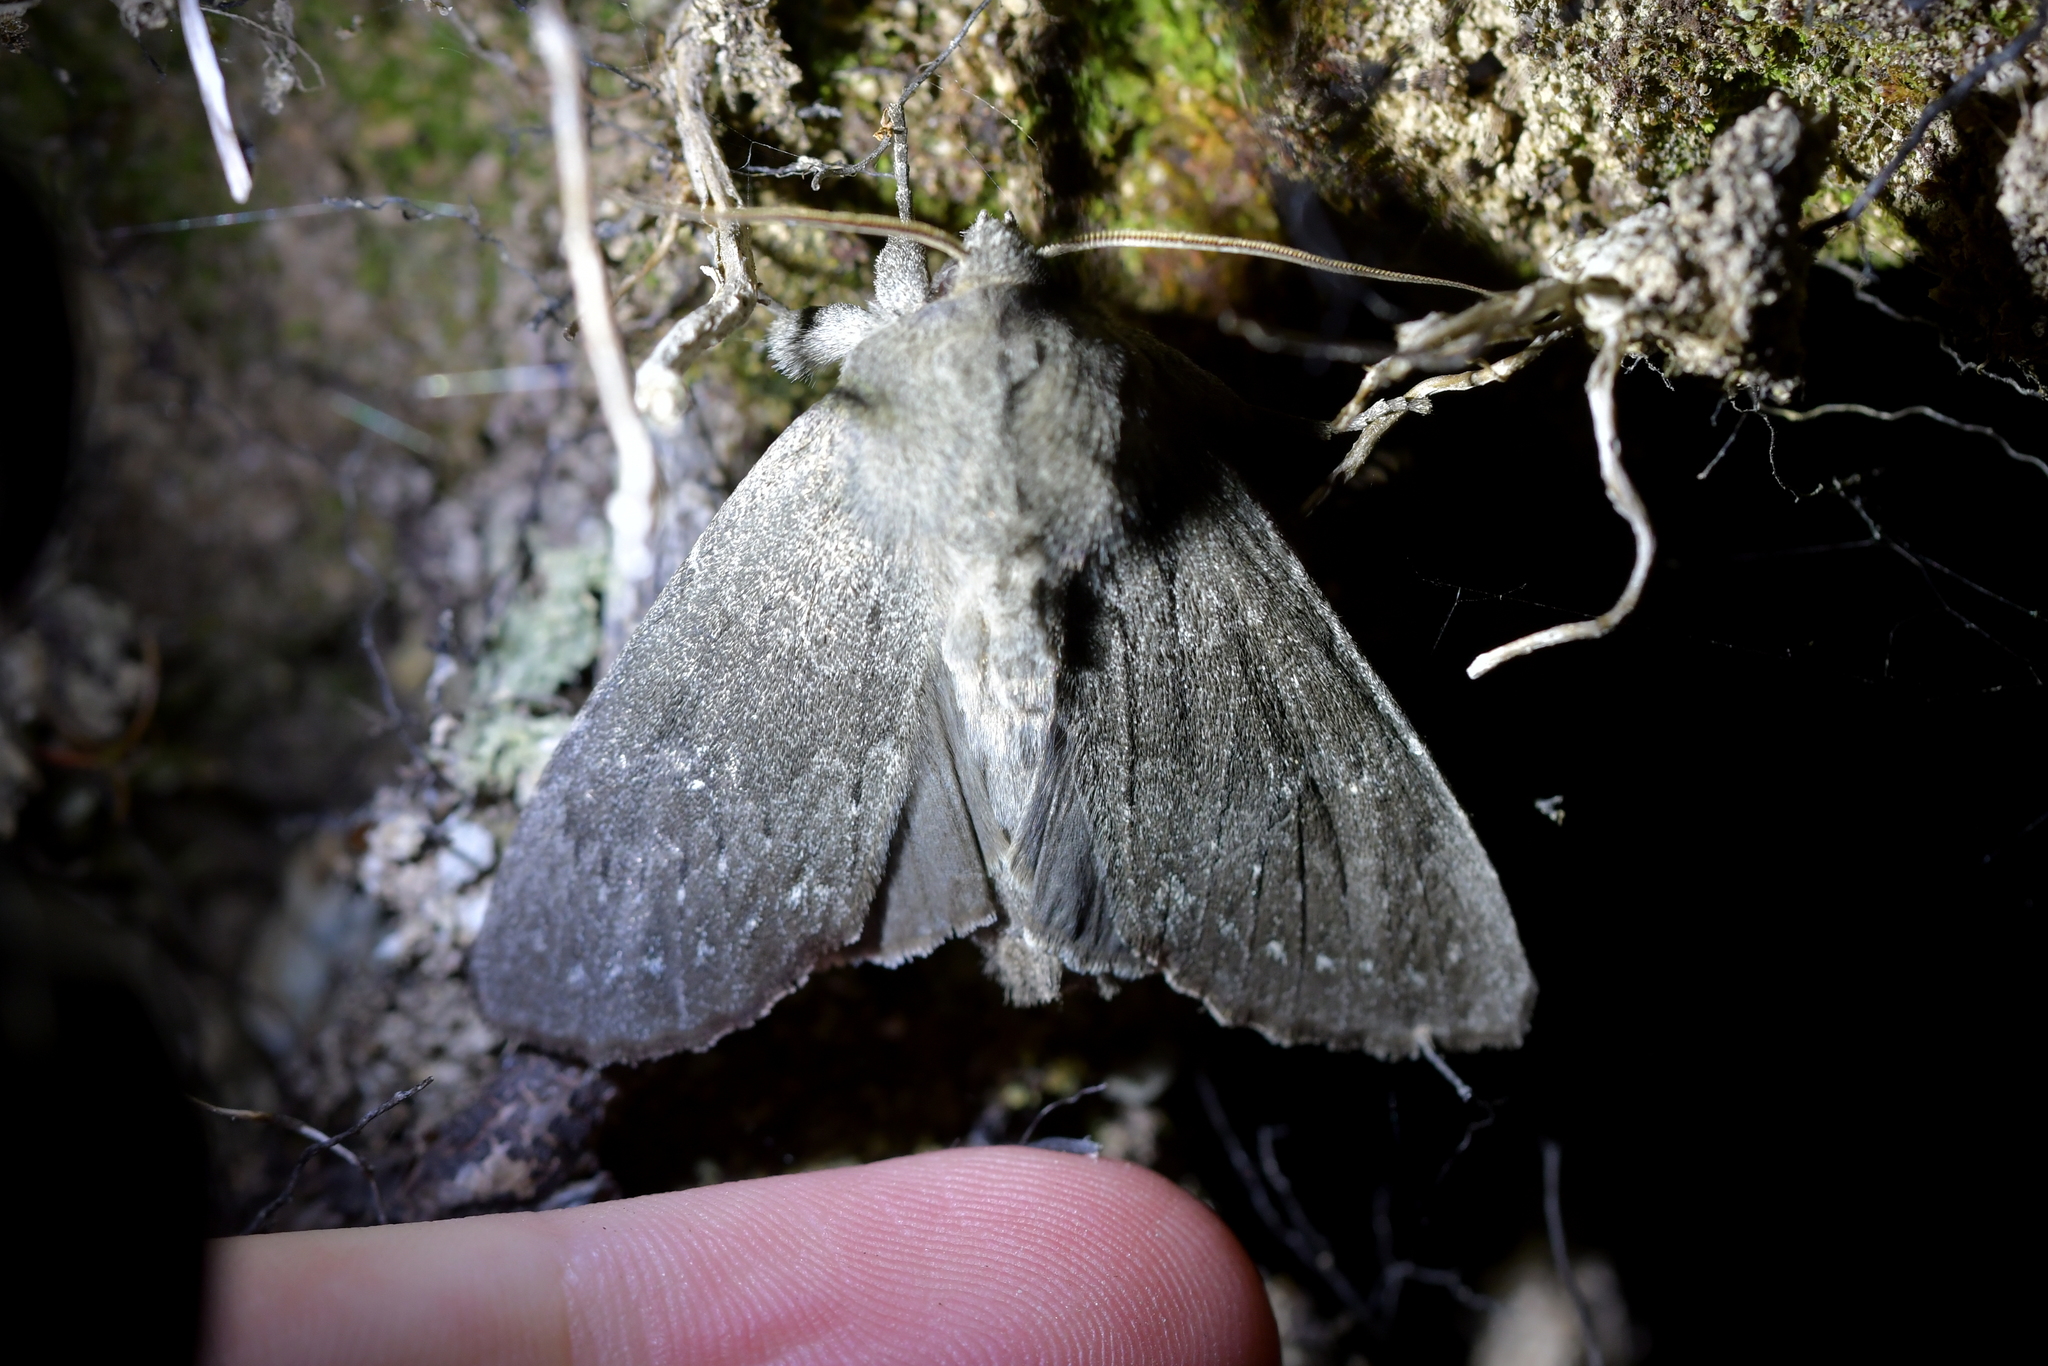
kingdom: Animalia
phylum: Arthropoda
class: Insecta
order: Lepidoptera
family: Noctuidae
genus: Ichneutica
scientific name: Ichneutica nullifera
